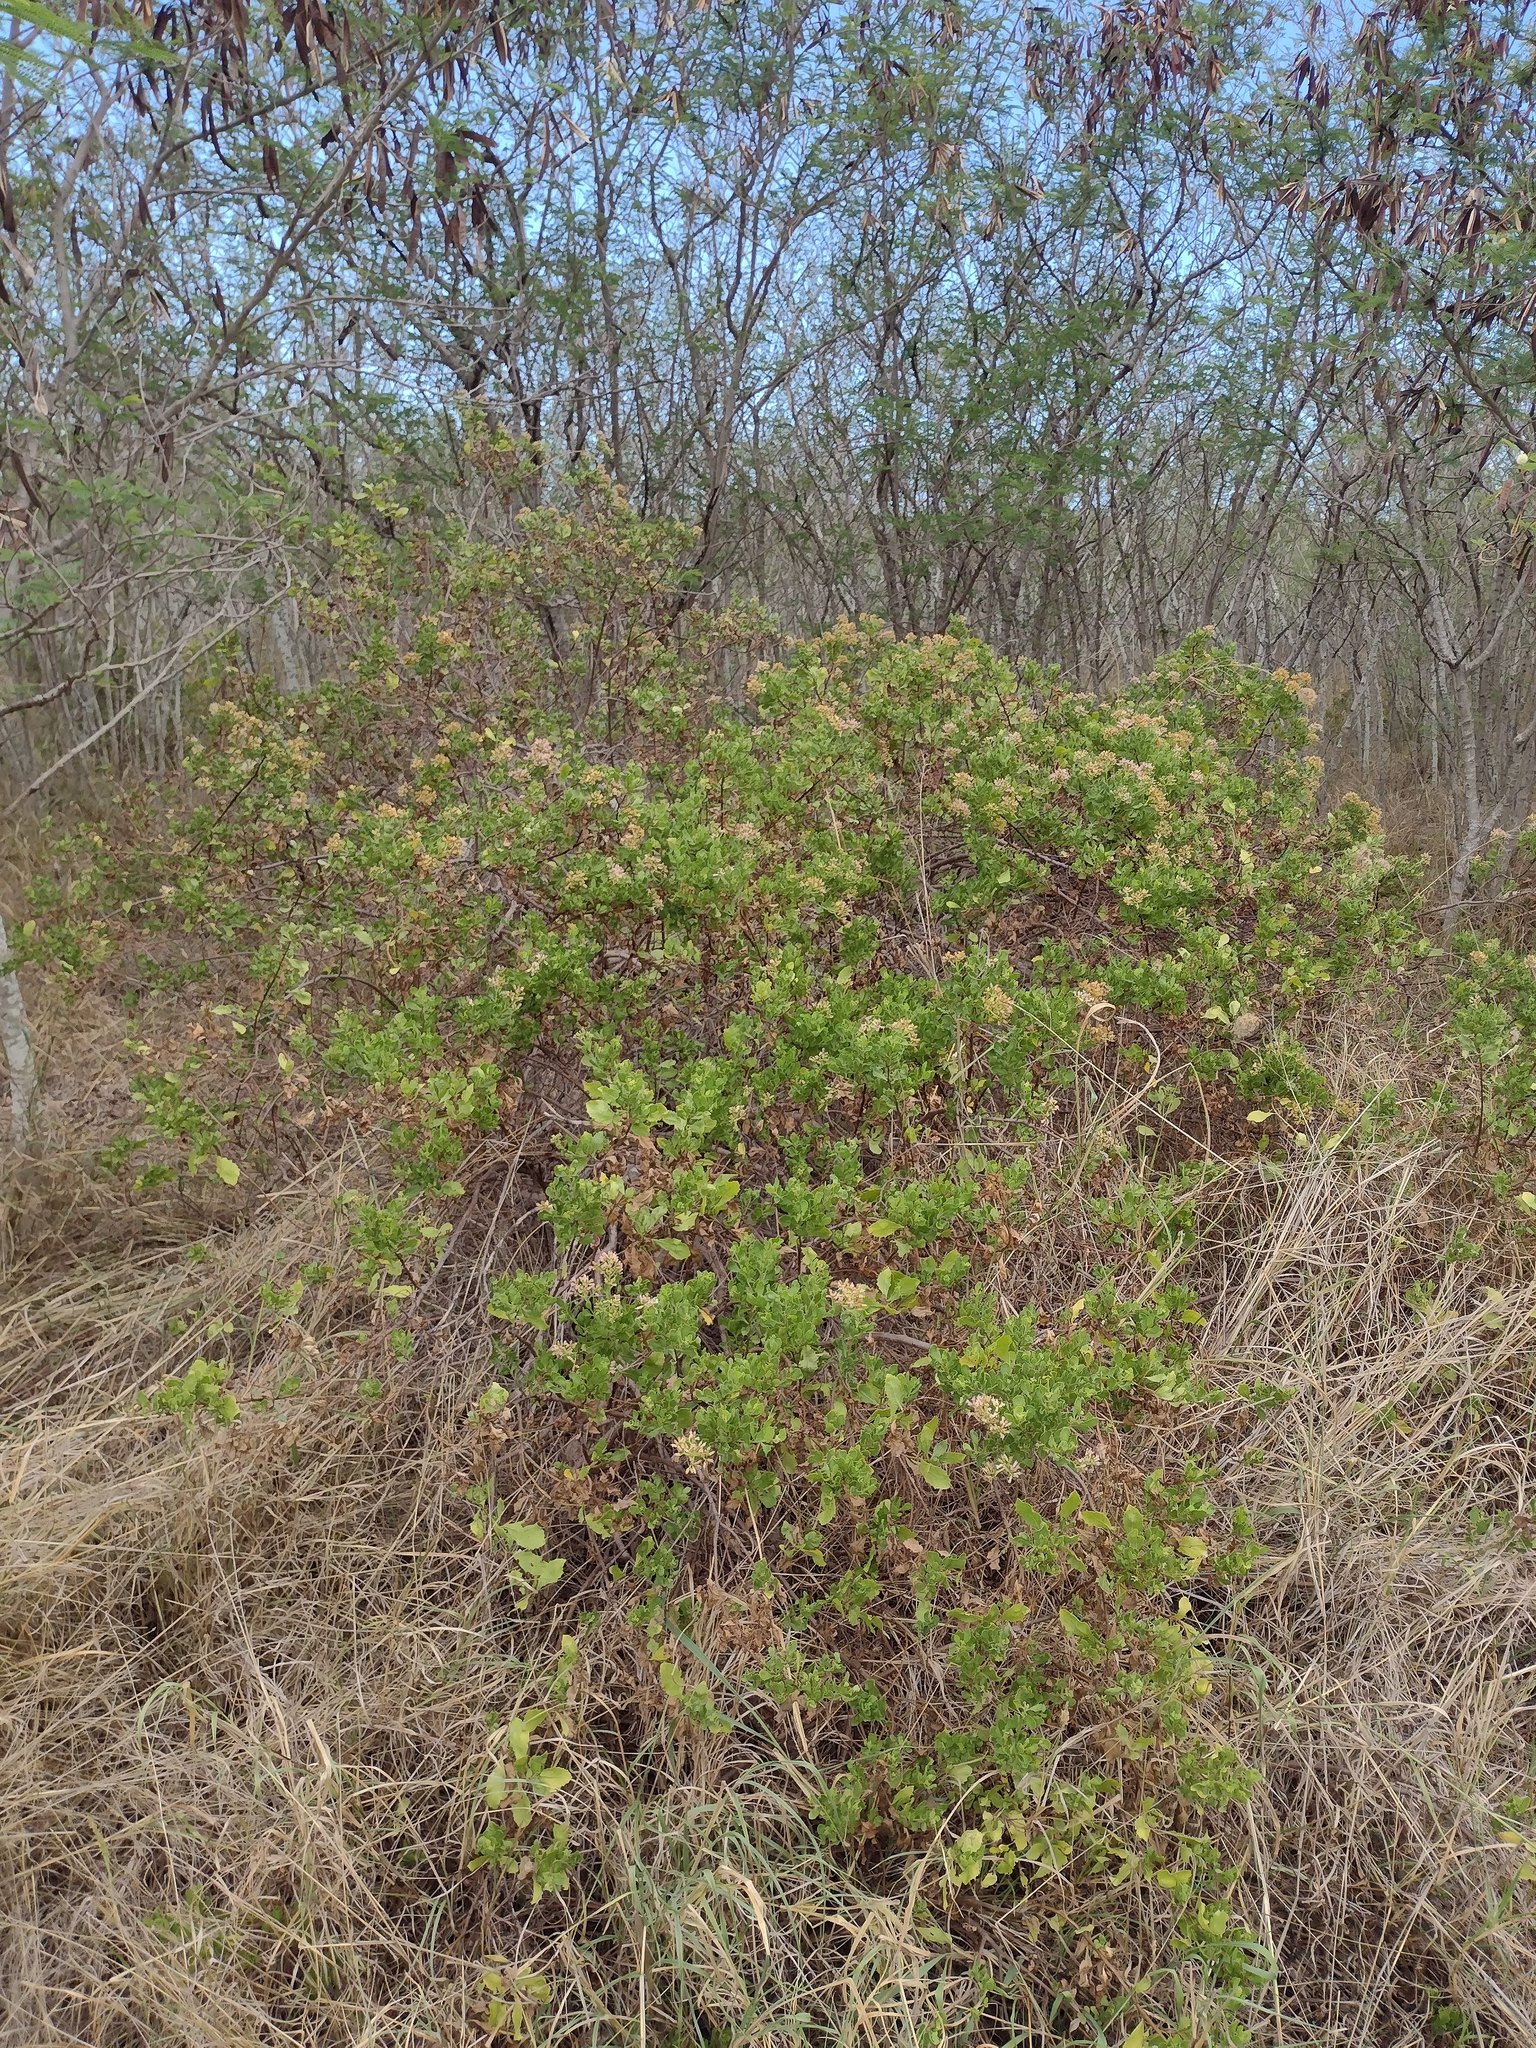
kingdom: Plantae
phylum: Tracheophyta
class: Magnoliopsida
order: Asterales
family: Asteraceae
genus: Pluchea
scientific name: Pluchea indica
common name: Indian fleabane
